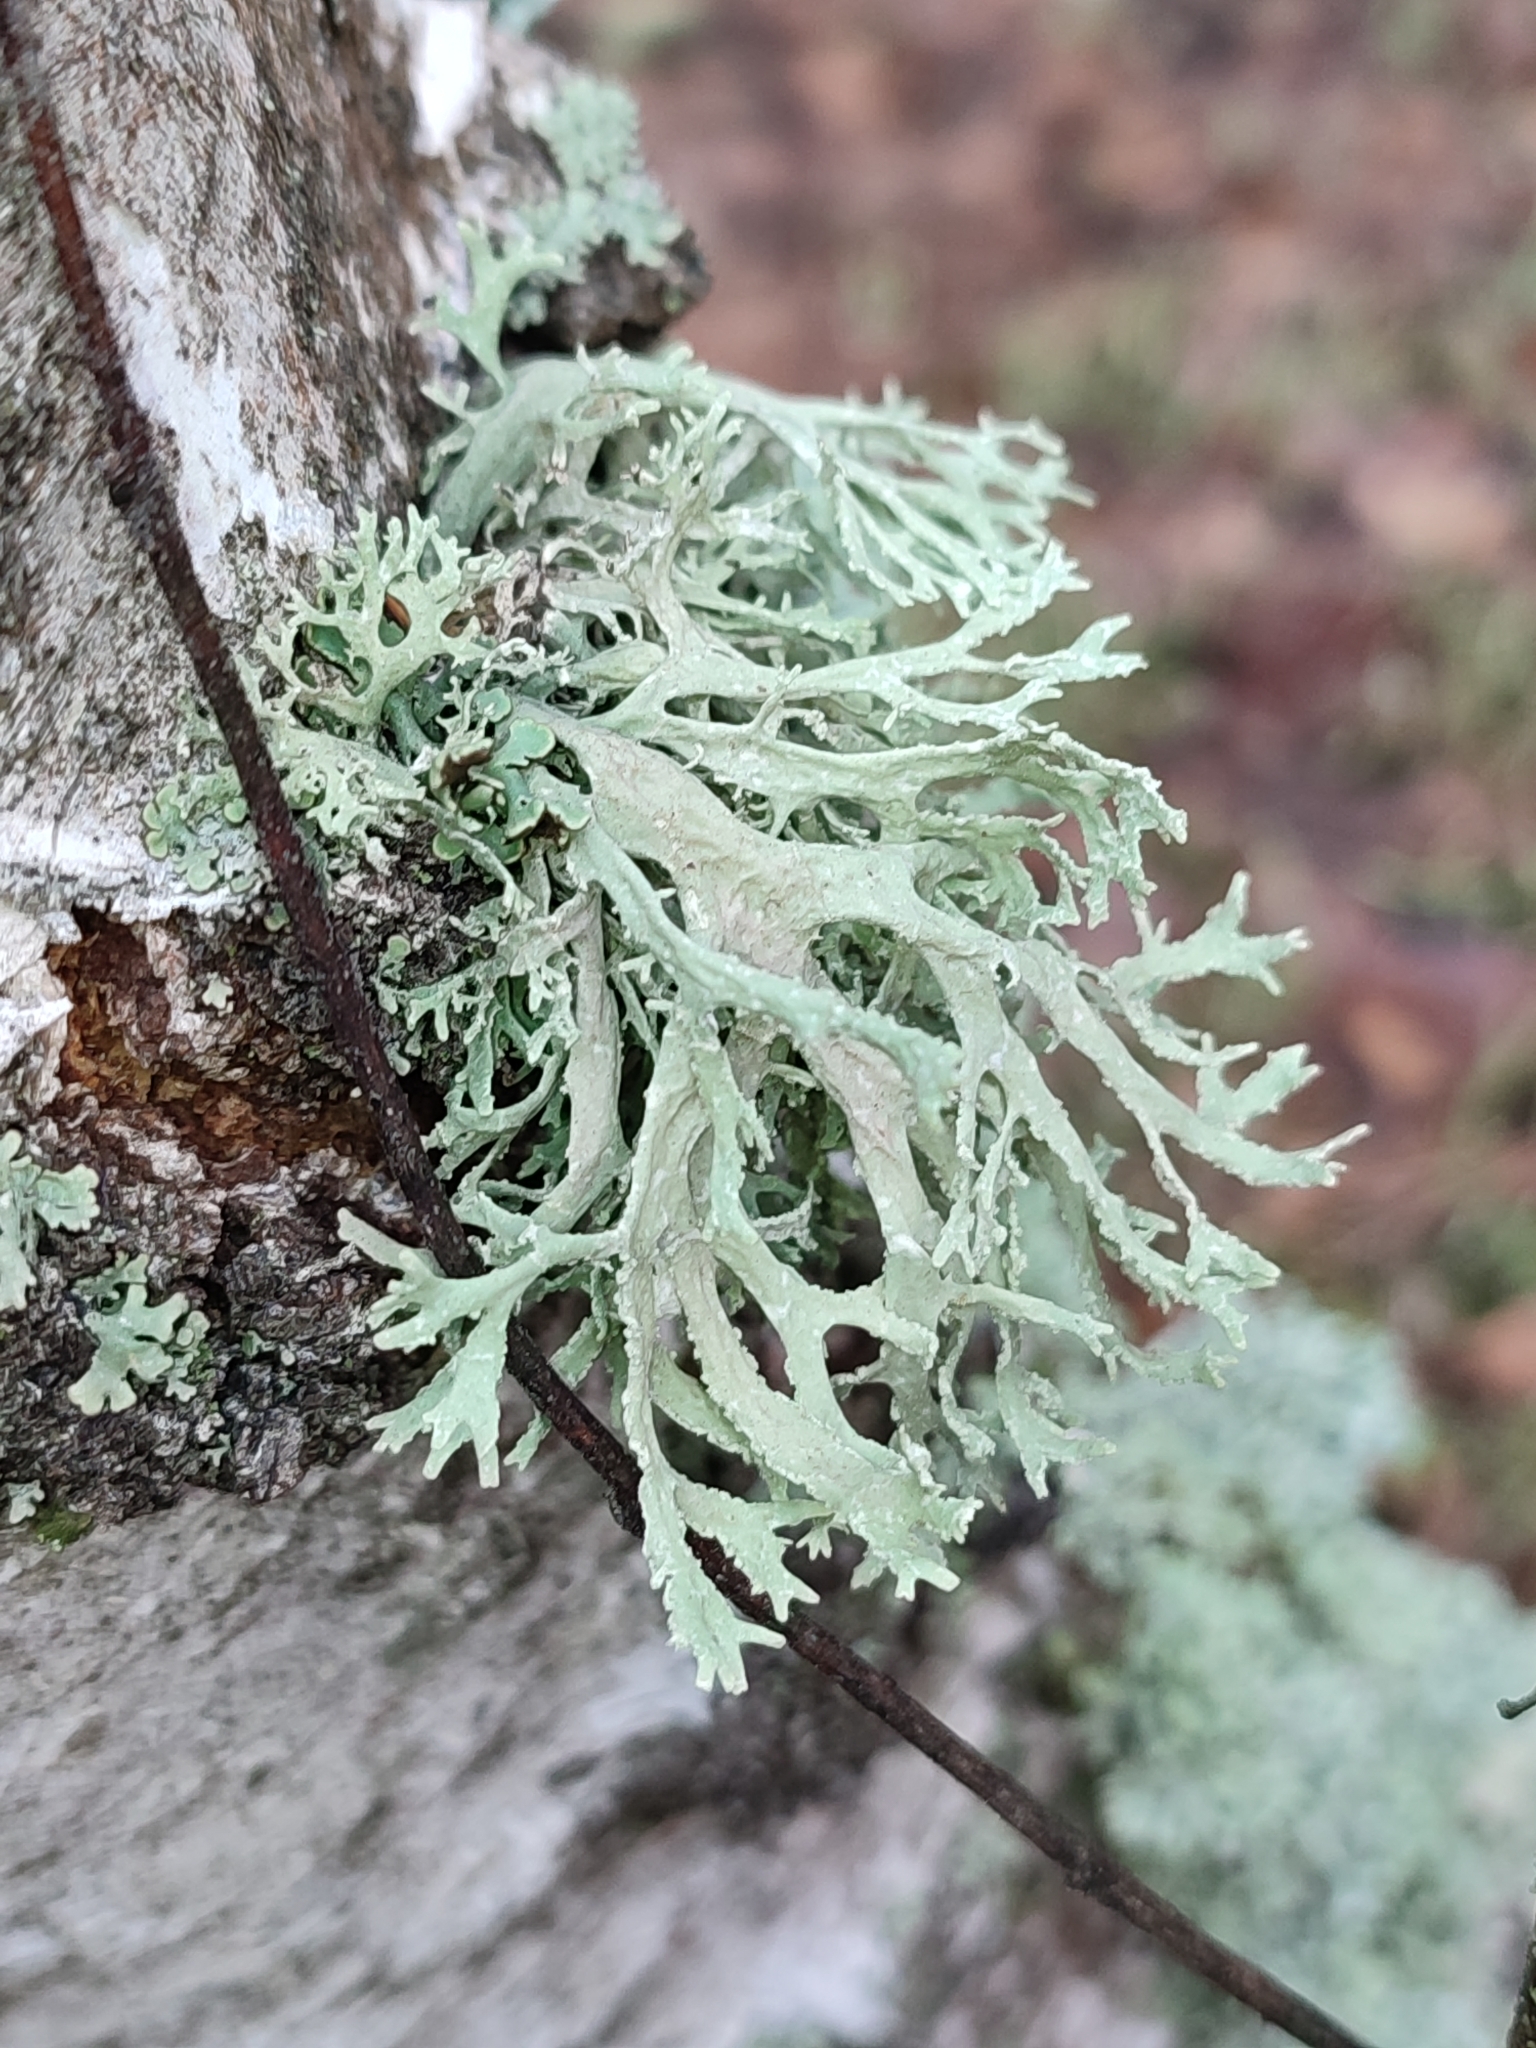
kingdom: Fungi
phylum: Ascomycota
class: Lecanoromycetes
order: Lecanorales
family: Parmeliaceae
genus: Evernia
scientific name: Evernia prunastri
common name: Oak moss
